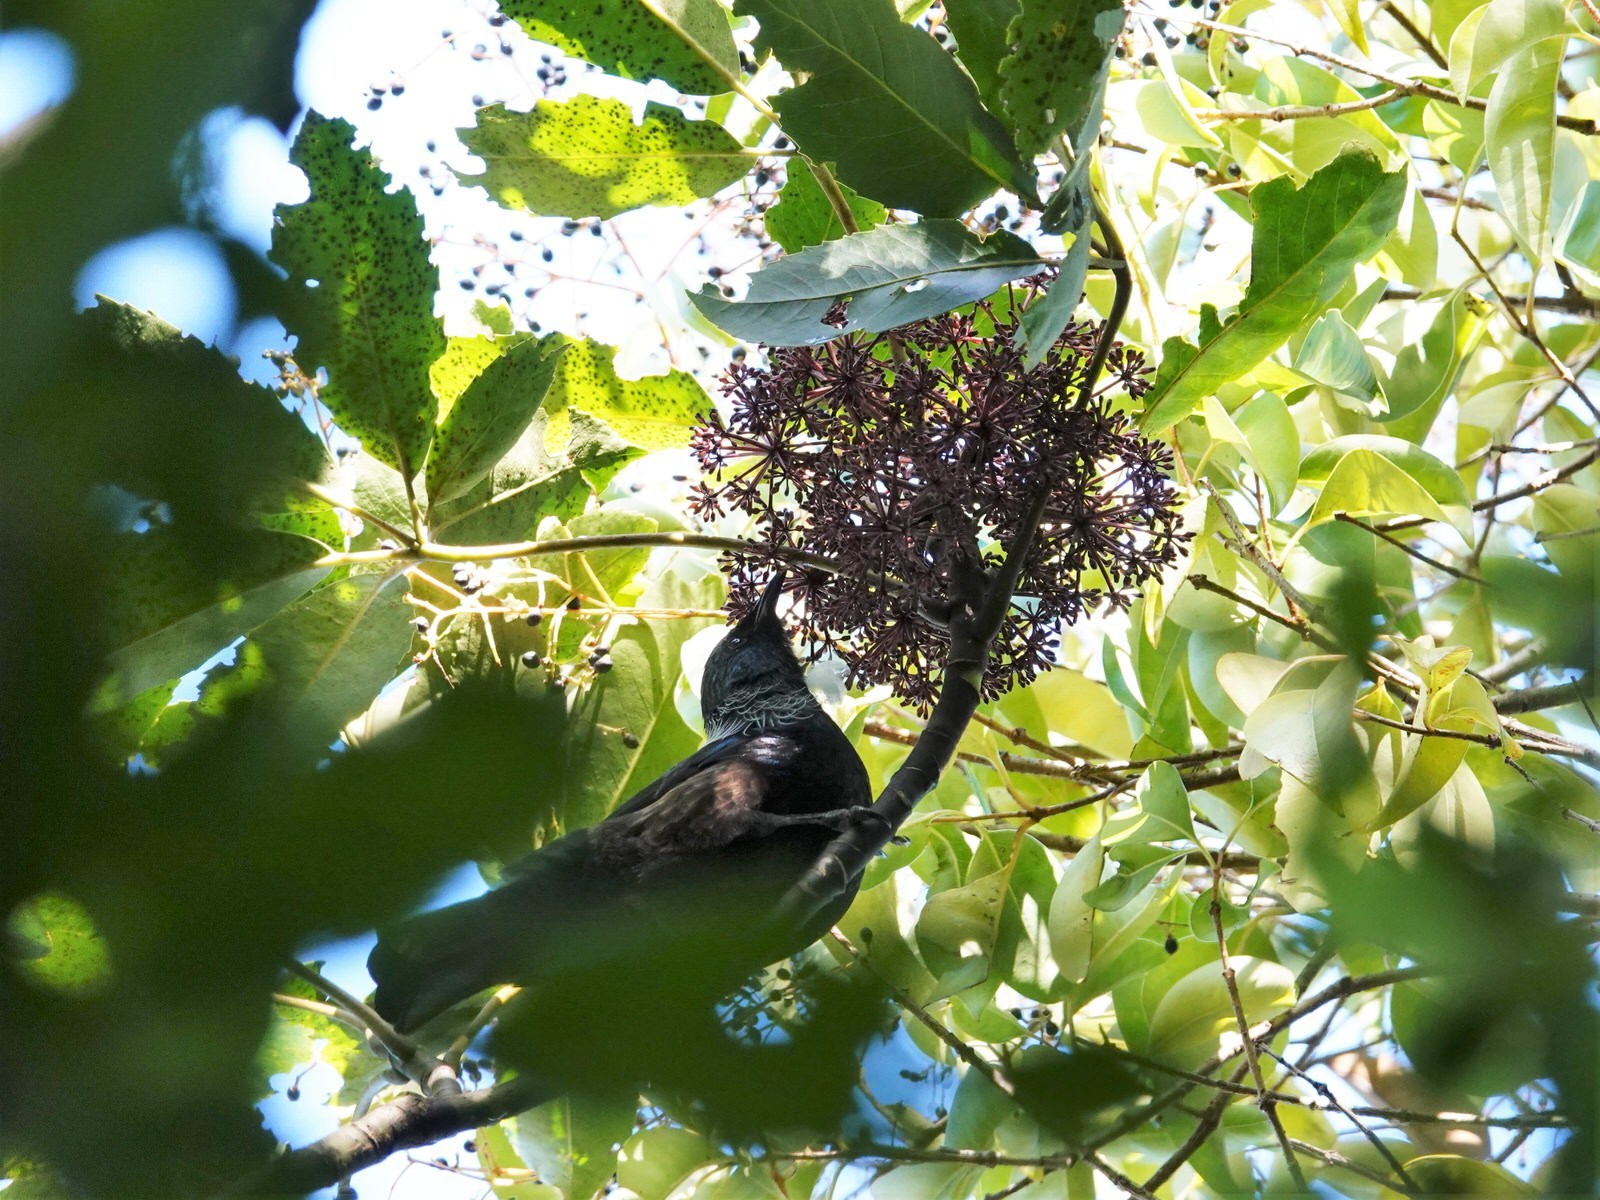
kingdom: Plantae
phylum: Tracheophyta
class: Magnoliopsida
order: Apiales
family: Araliaceae
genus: Neopanax
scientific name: Neopanax arboreus
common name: Five-fingers
